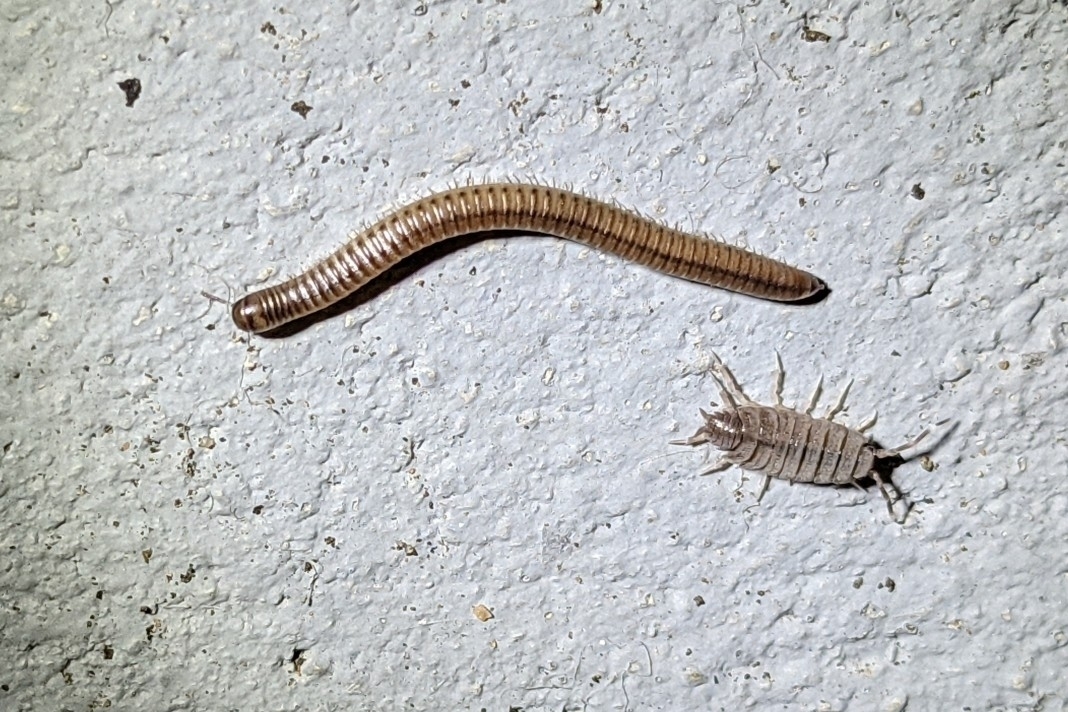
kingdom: Animalia
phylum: Arthropoda
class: Malacostraca
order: Isopoda
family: Porcellionidae
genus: Porcellionides
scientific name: Porcellionides pruinosus
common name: Plum woodlouse
